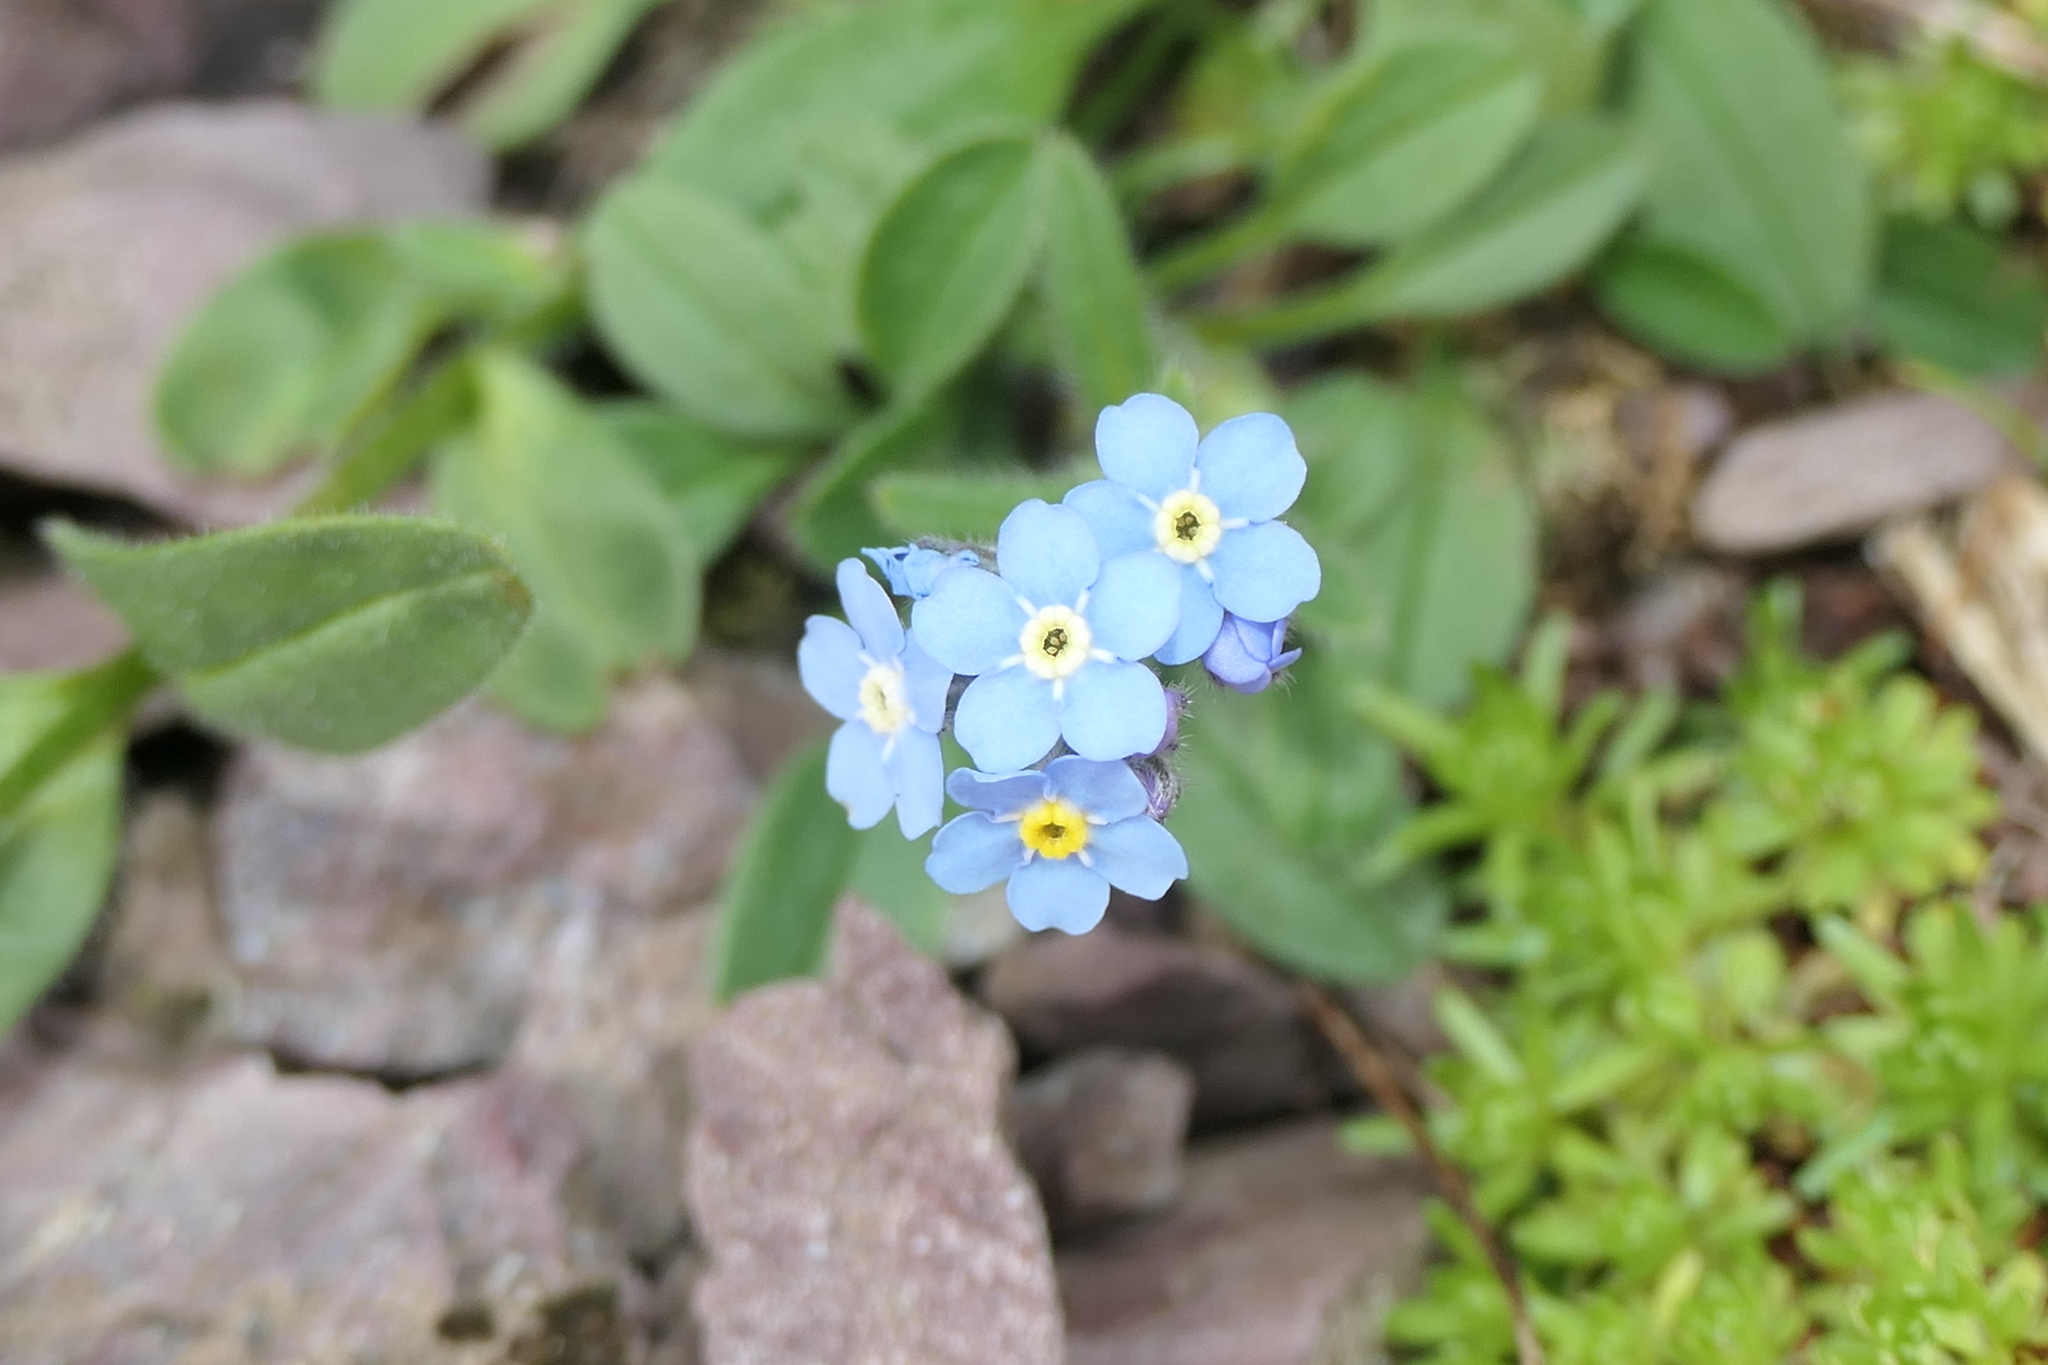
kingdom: Plantae
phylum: Tracheophyta
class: Magnoliopsida
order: Boraginales
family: Boraginaceae
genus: Myosotis
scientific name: Myosotis alpestris
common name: Alpine forget-me-not
